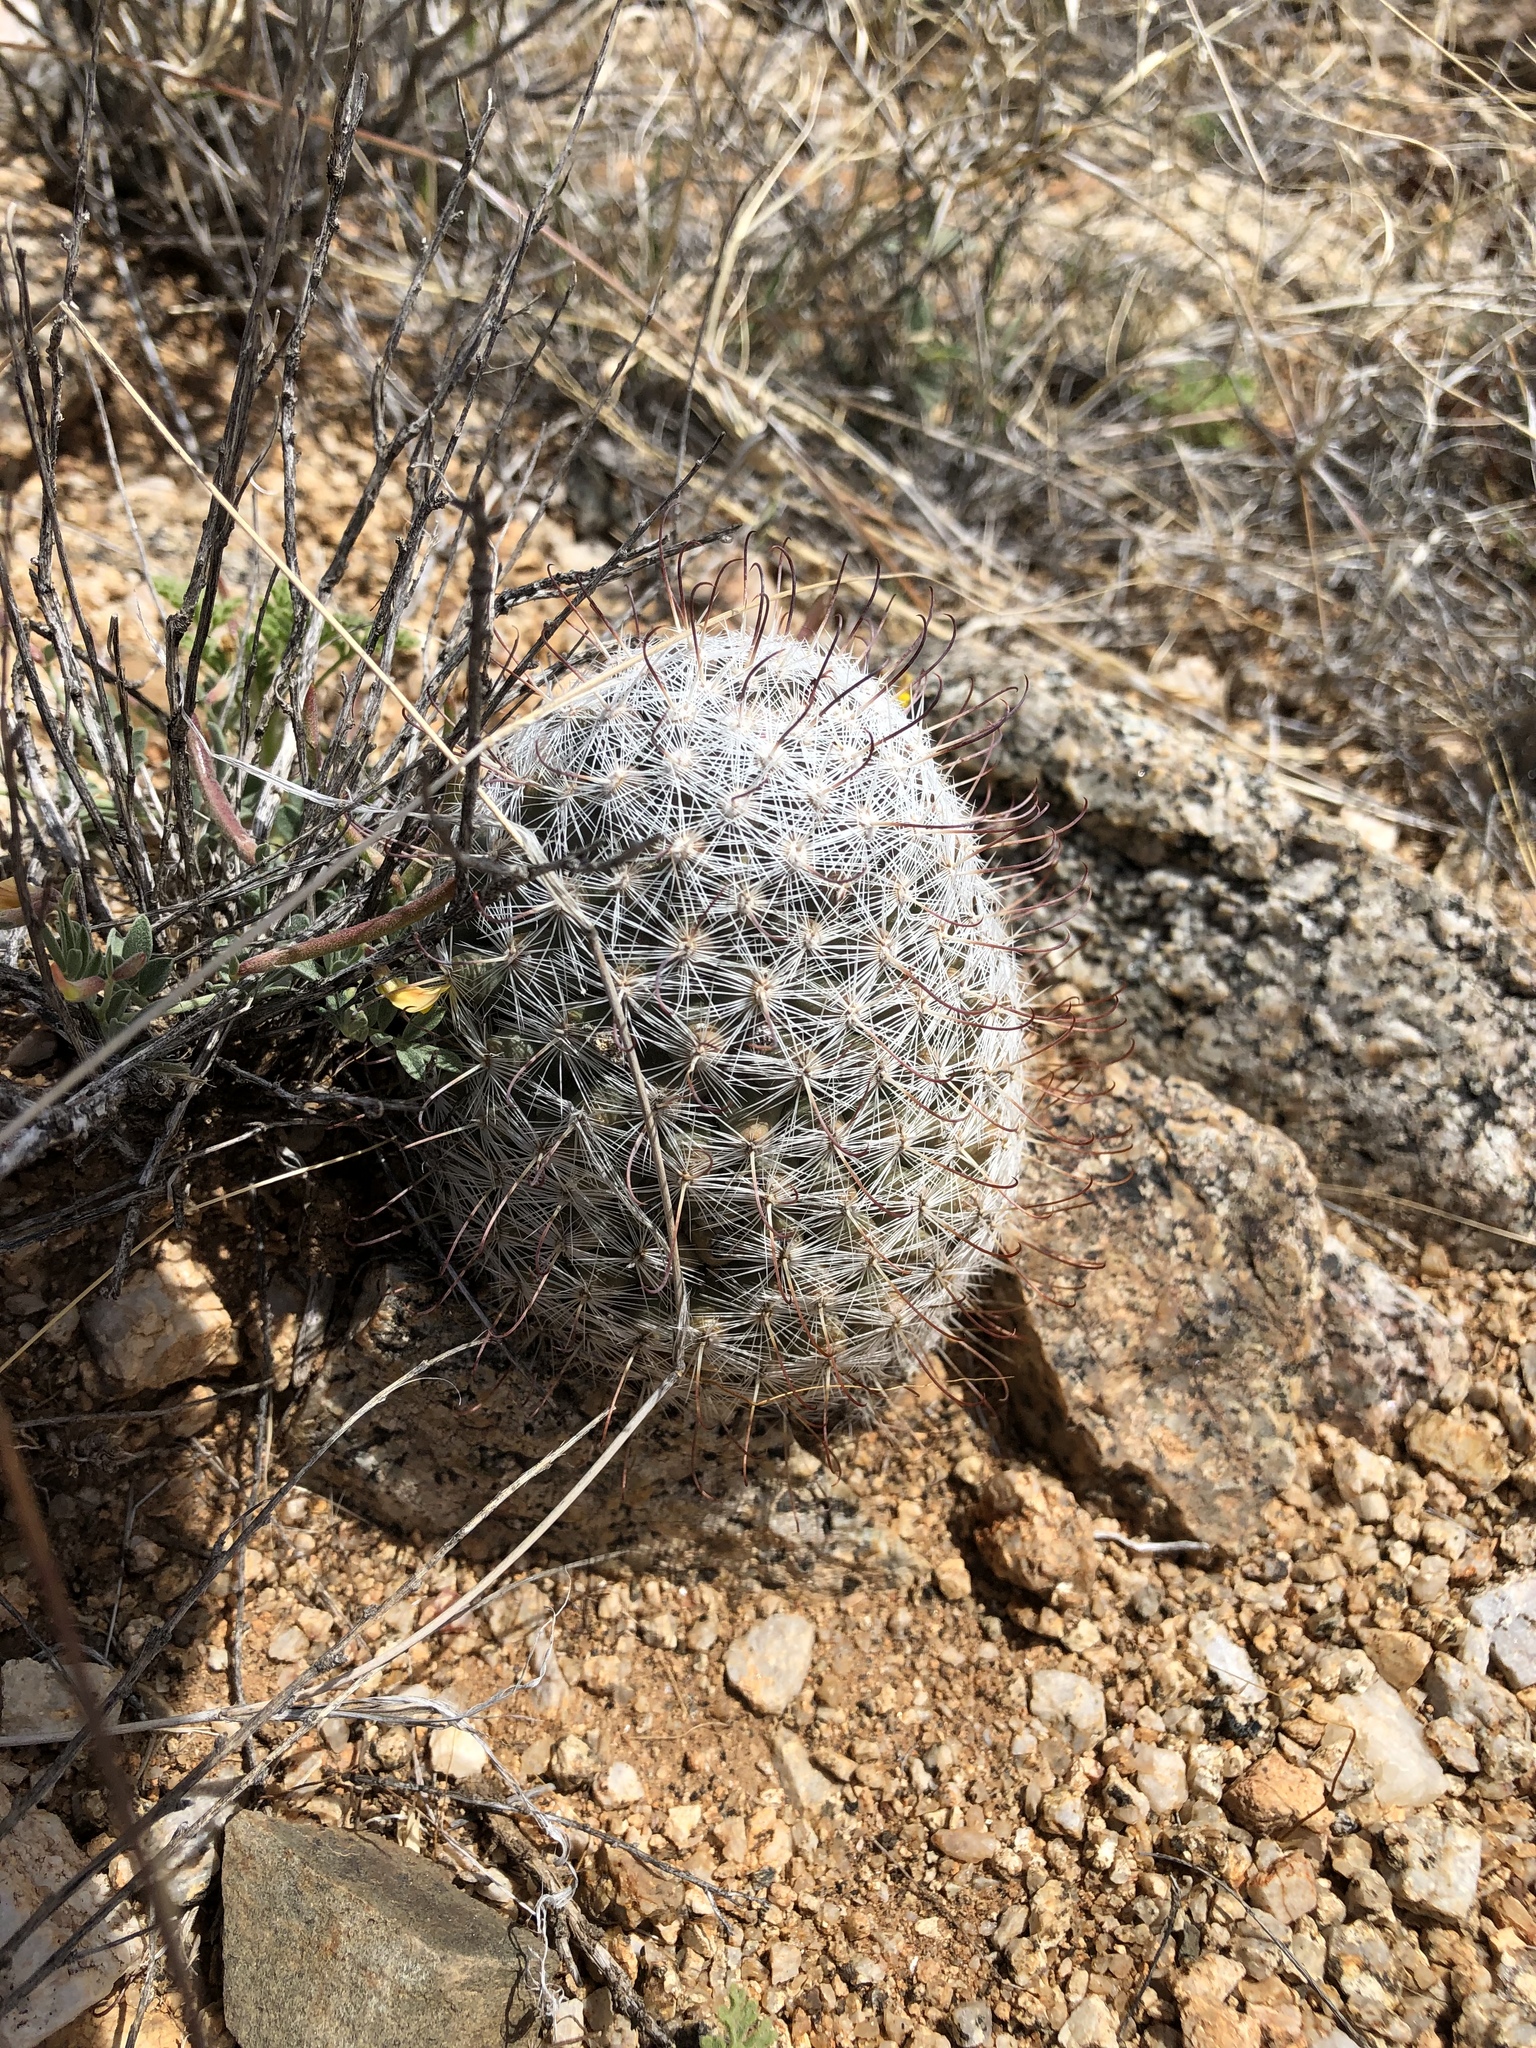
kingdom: Plantae
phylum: Tracheophyta
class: Magnoliopsida
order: Caryophyllales
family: Cactaceae
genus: Cochemiea
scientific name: Cochemiea grahamii
